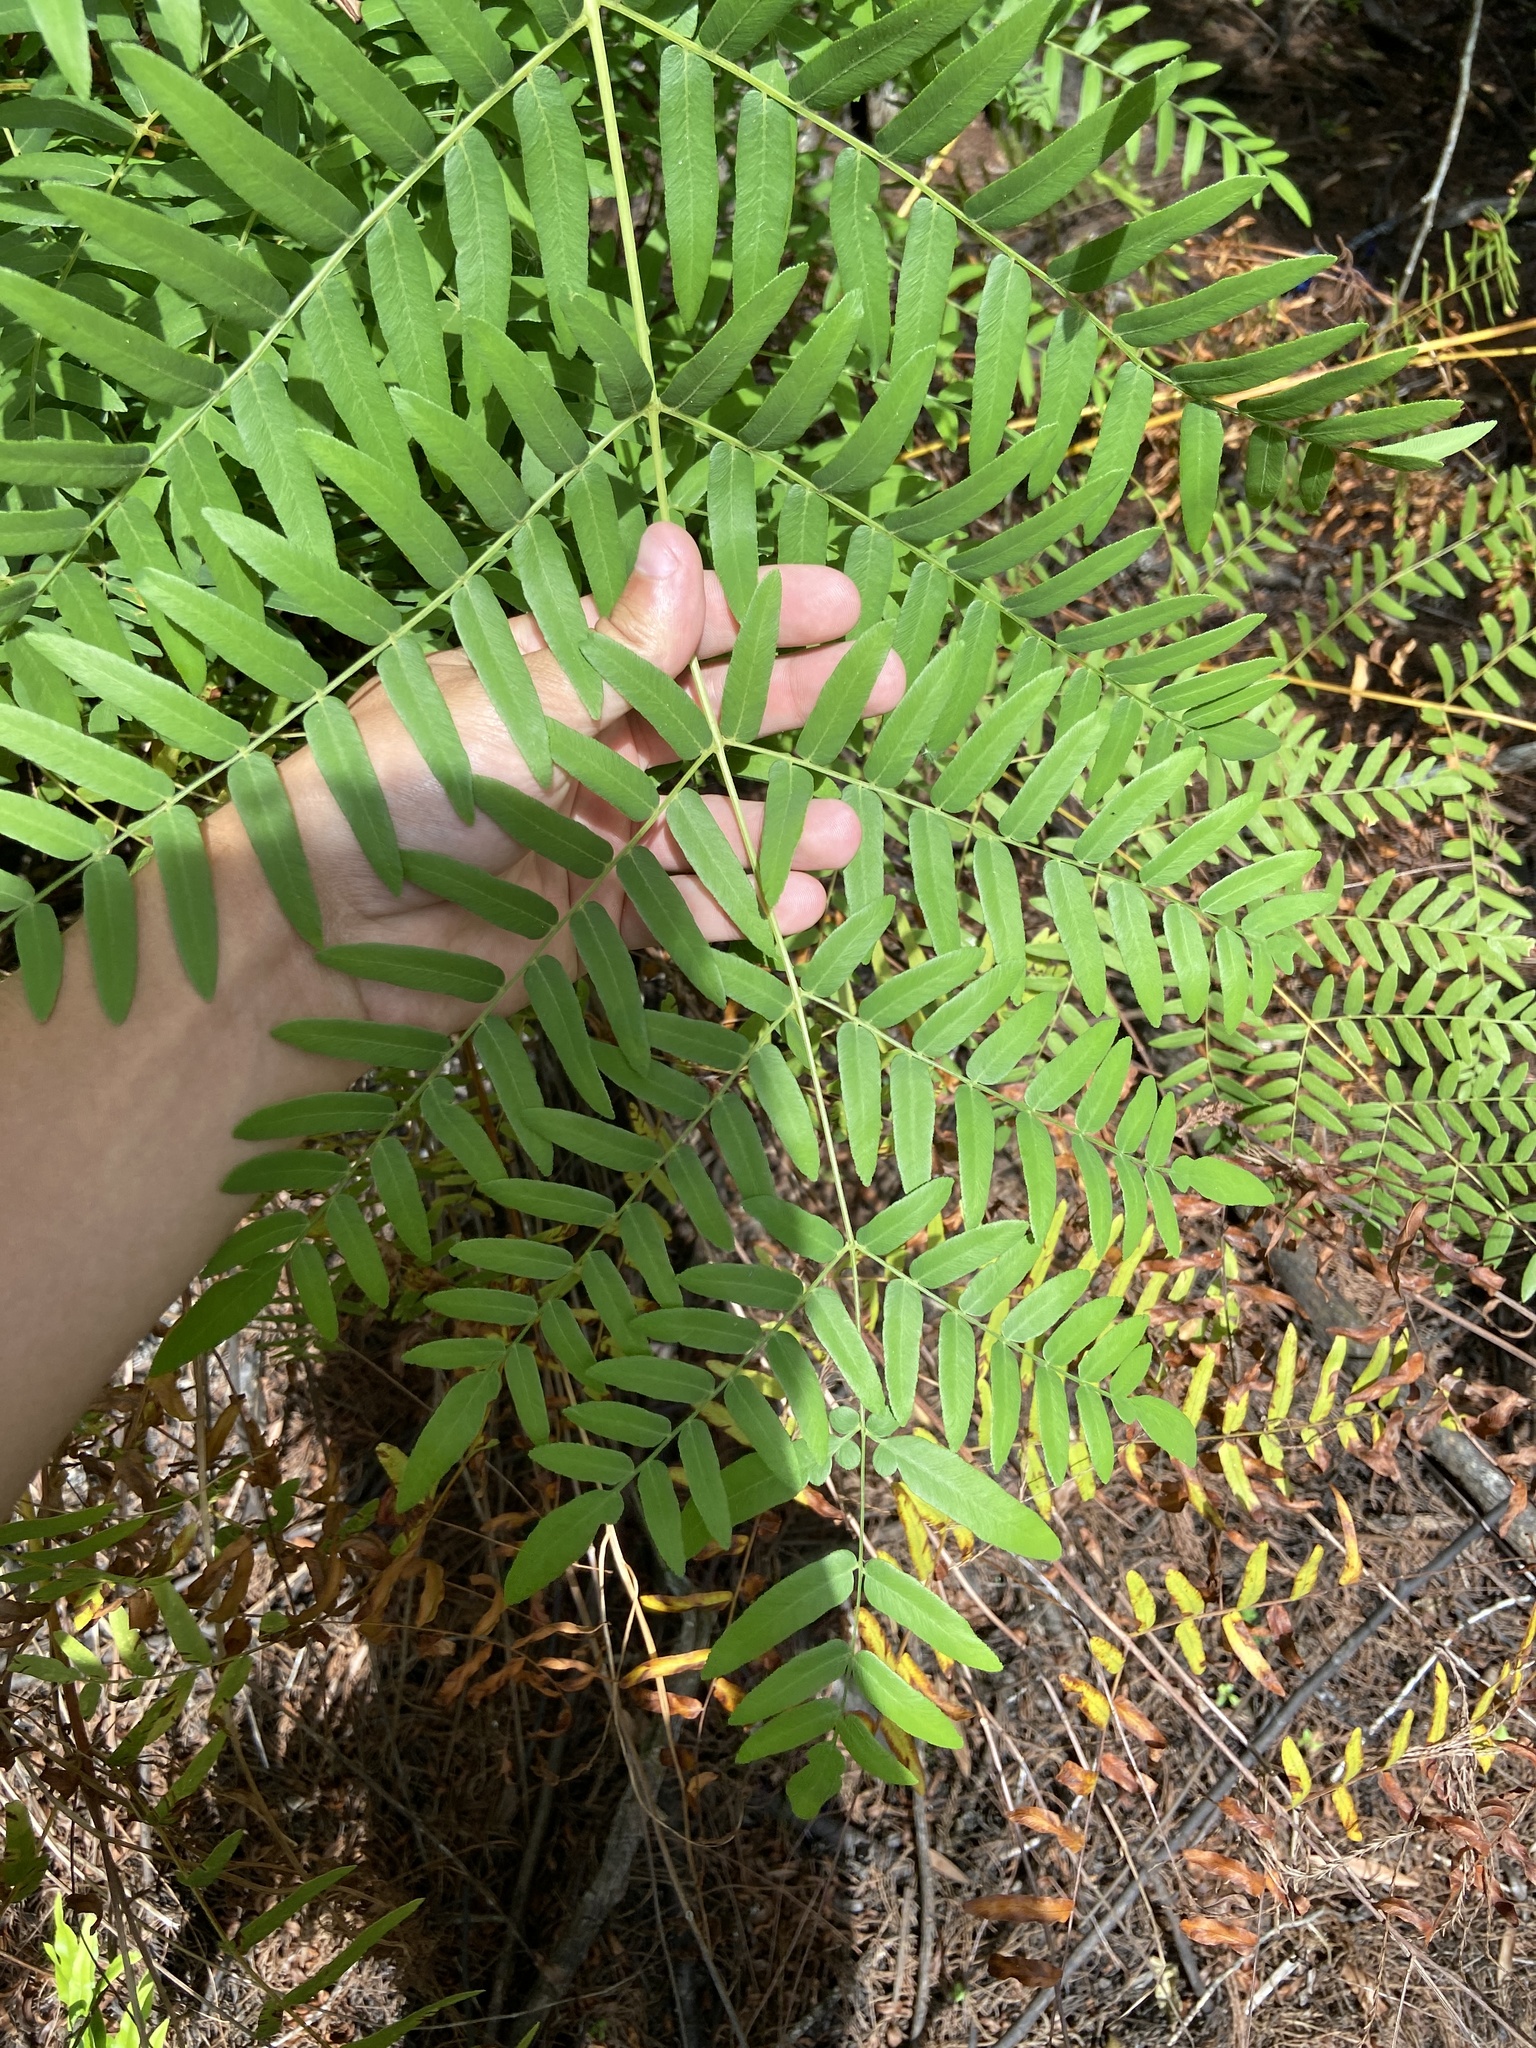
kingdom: Plantae
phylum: Tracheophyta
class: Polypodiopsida
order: Osmundales
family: Osmundaceae
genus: Osmunda
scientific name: Osmunda spectabilis
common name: American royal fern
